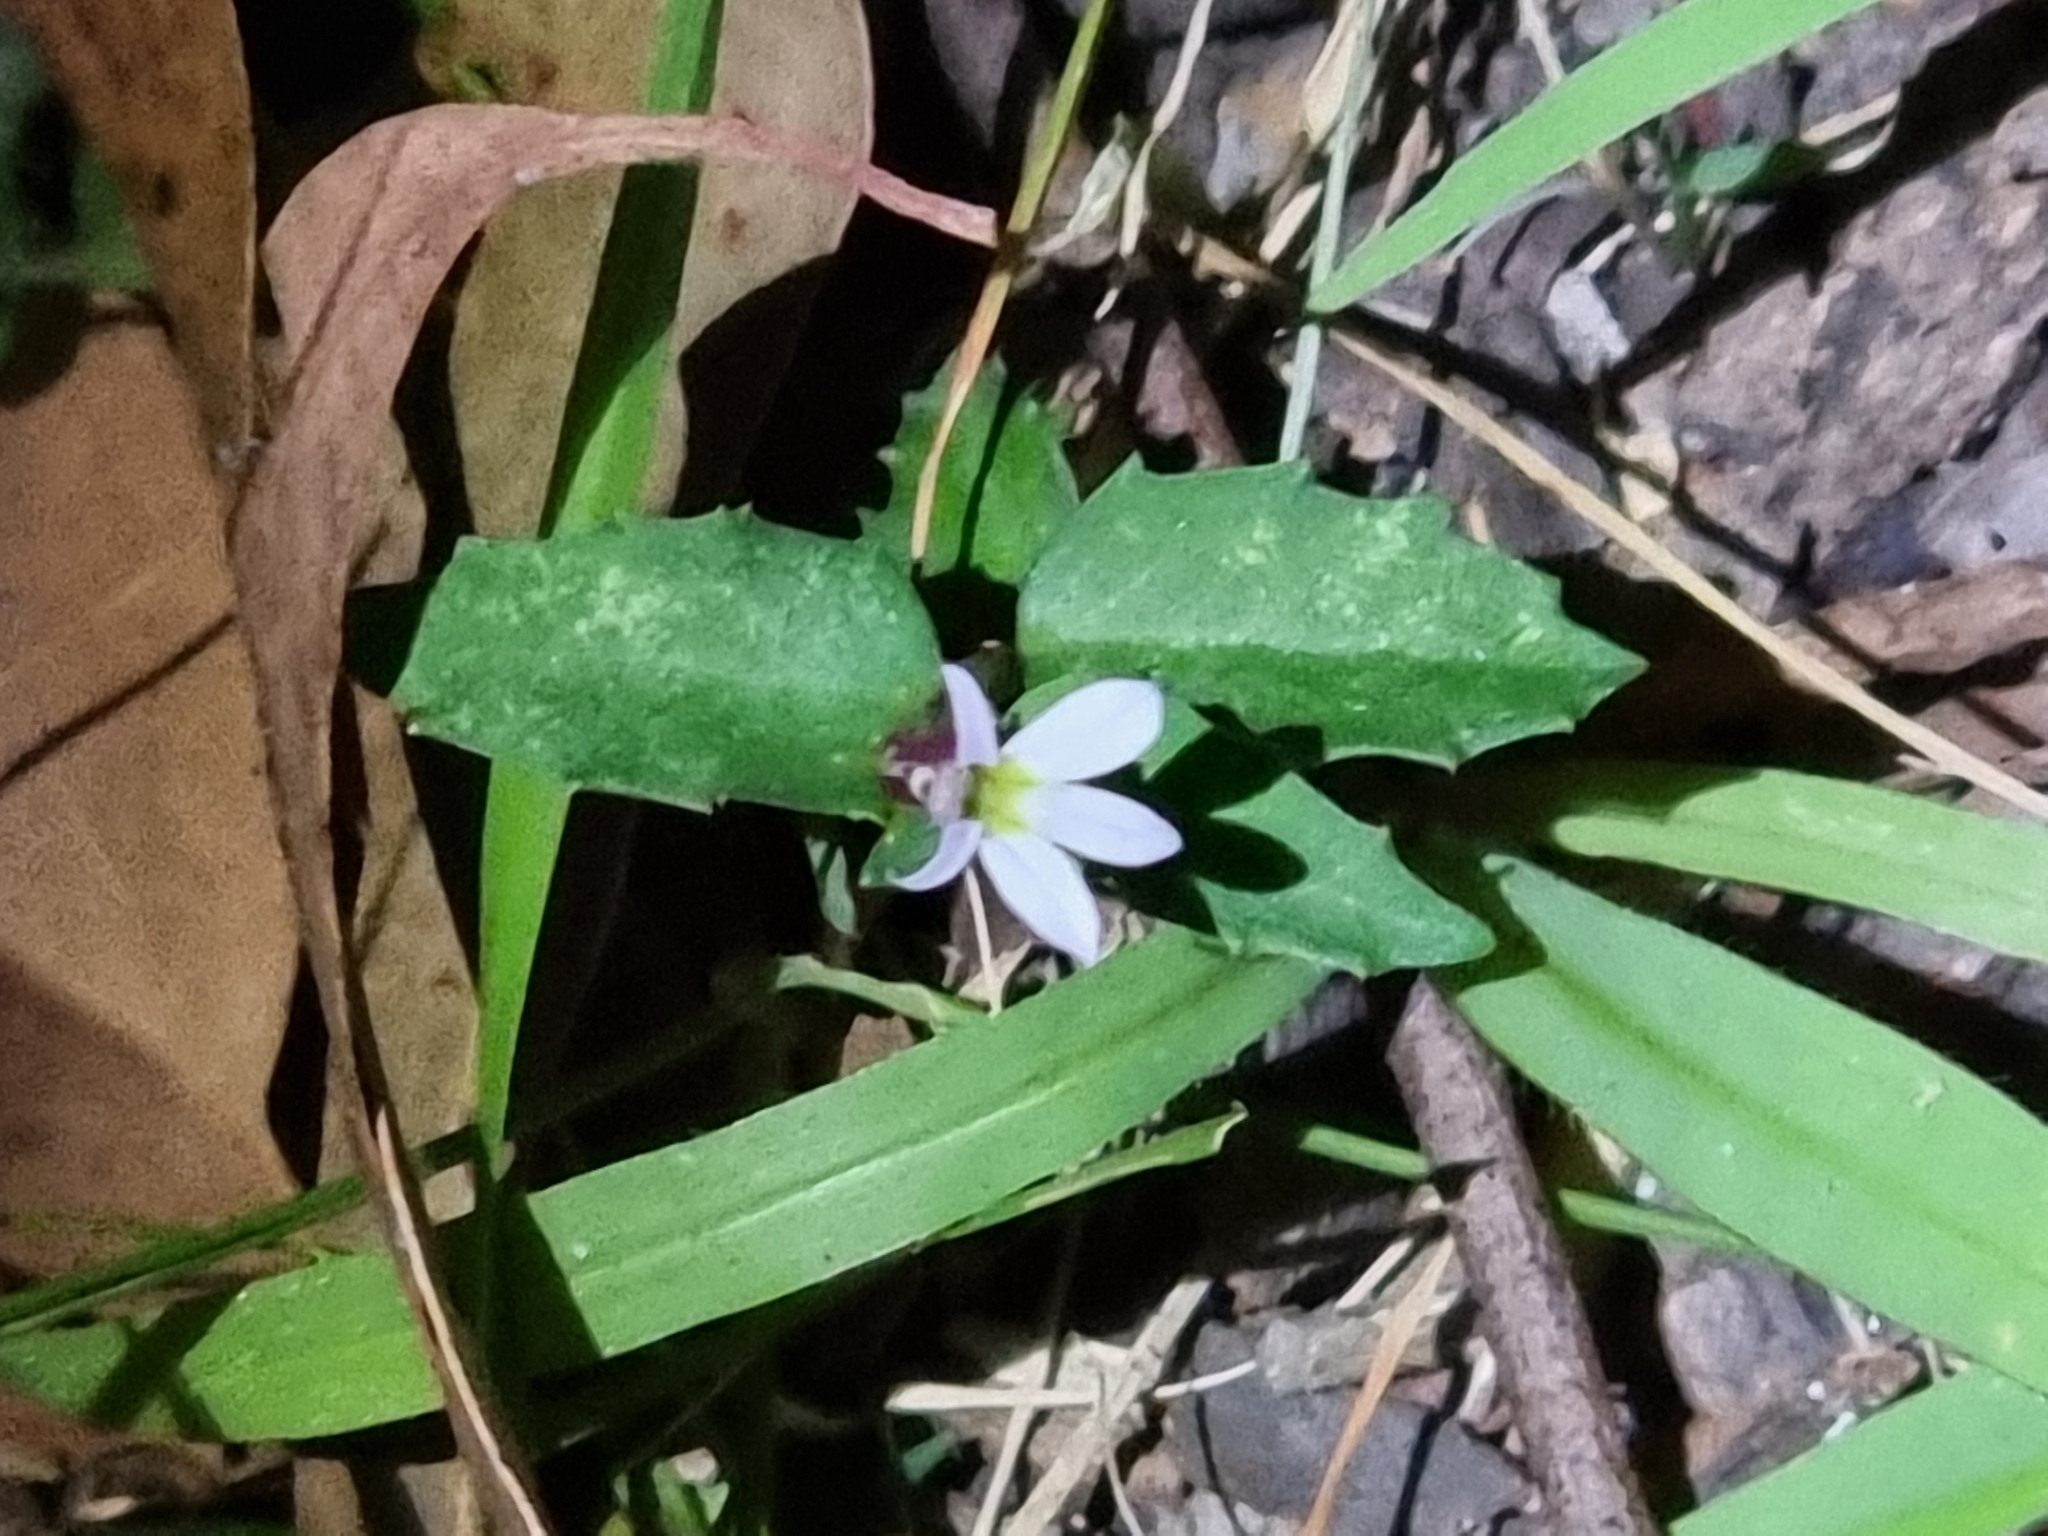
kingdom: Plantae
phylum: Tracheophyta
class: Magnoliopsida
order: Asterales
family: Campanulaceae
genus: Lobelia
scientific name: Lobelia purpurascens
